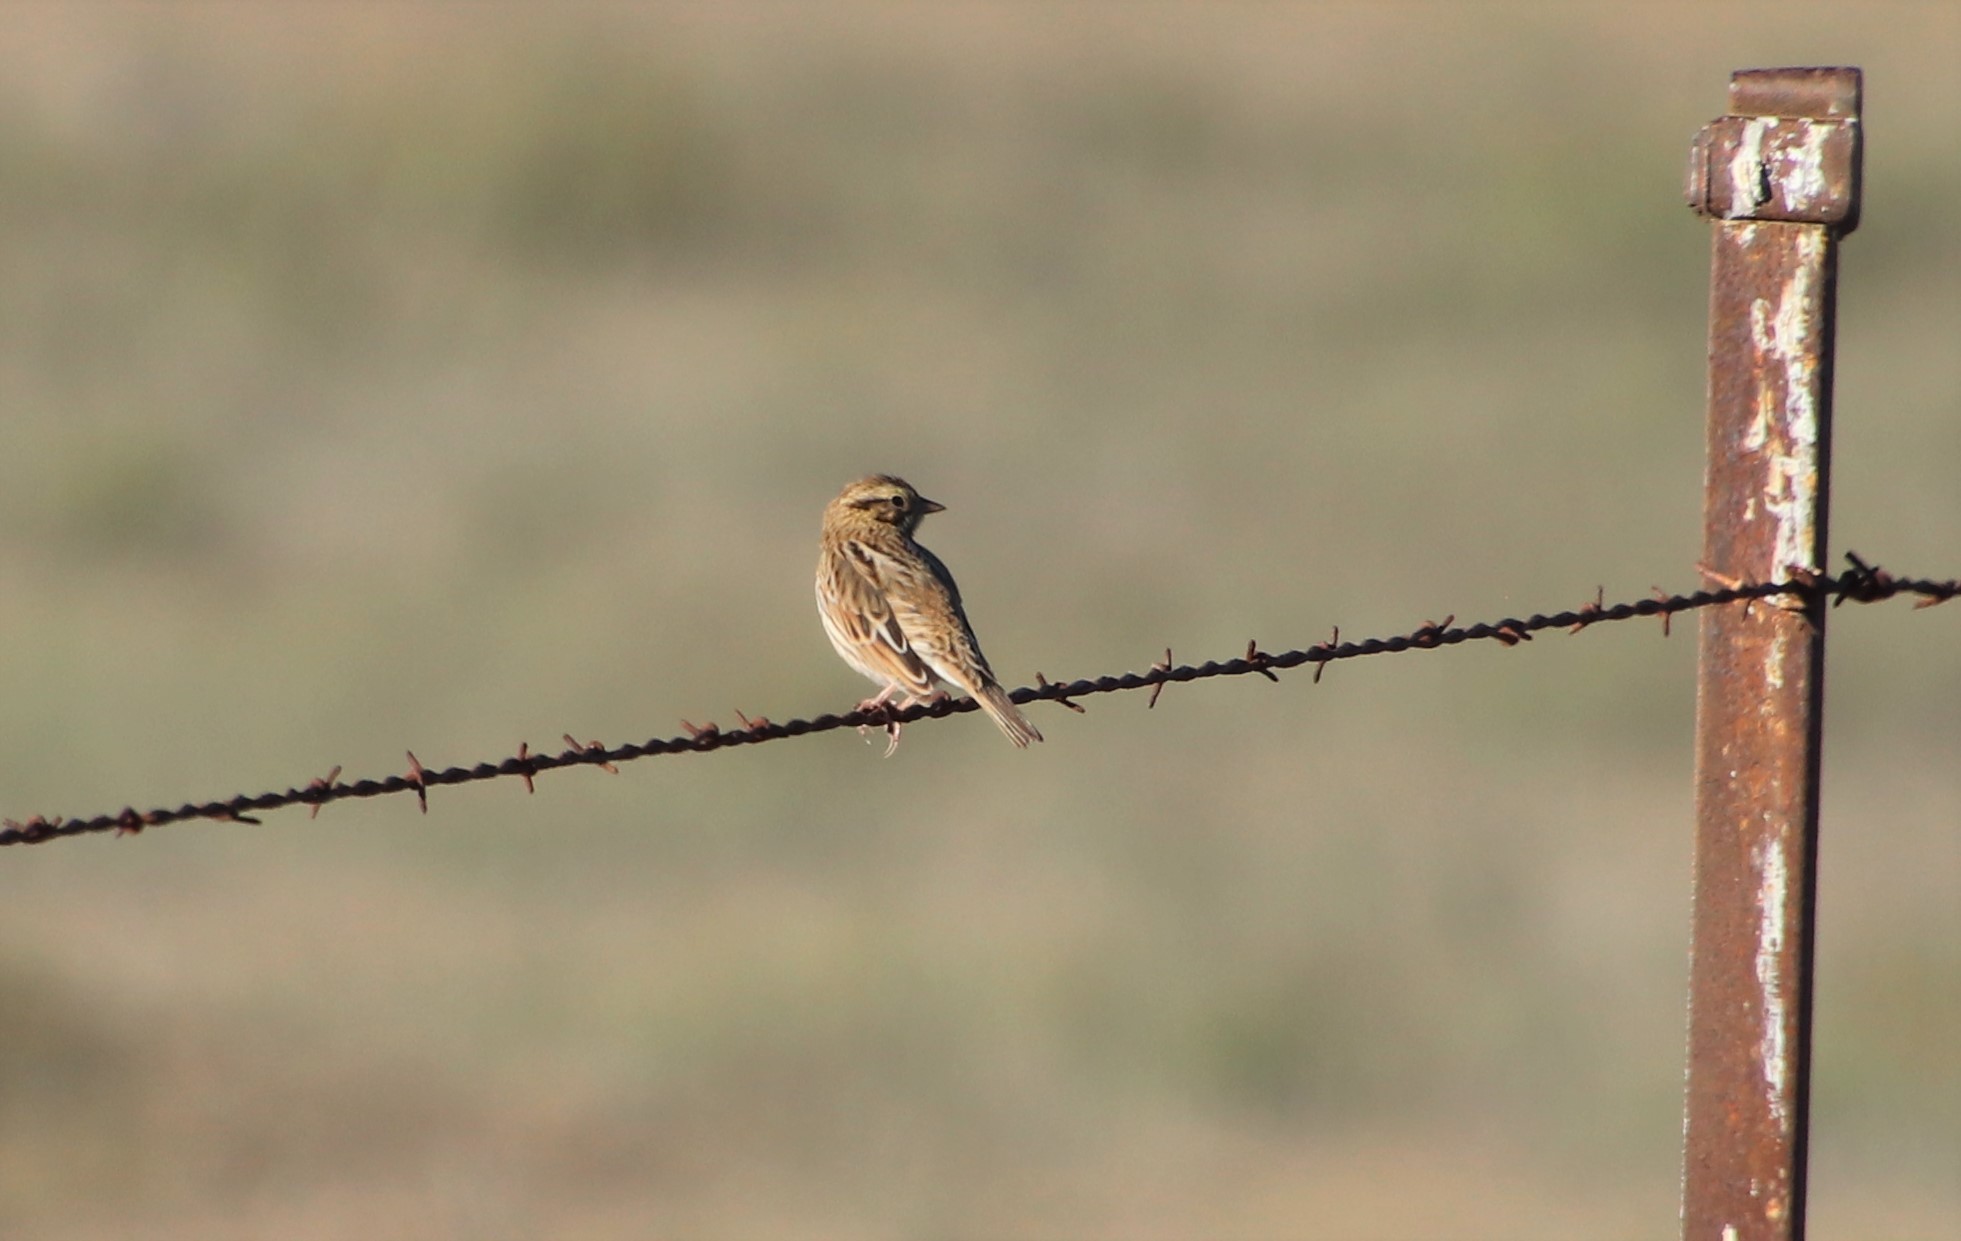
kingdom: Animalia
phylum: Chordata
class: Aves
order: Passeriformes
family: Passerellidae
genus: Passerculus
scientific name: Passerculus sandwichensis
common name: Savannah sparrow
